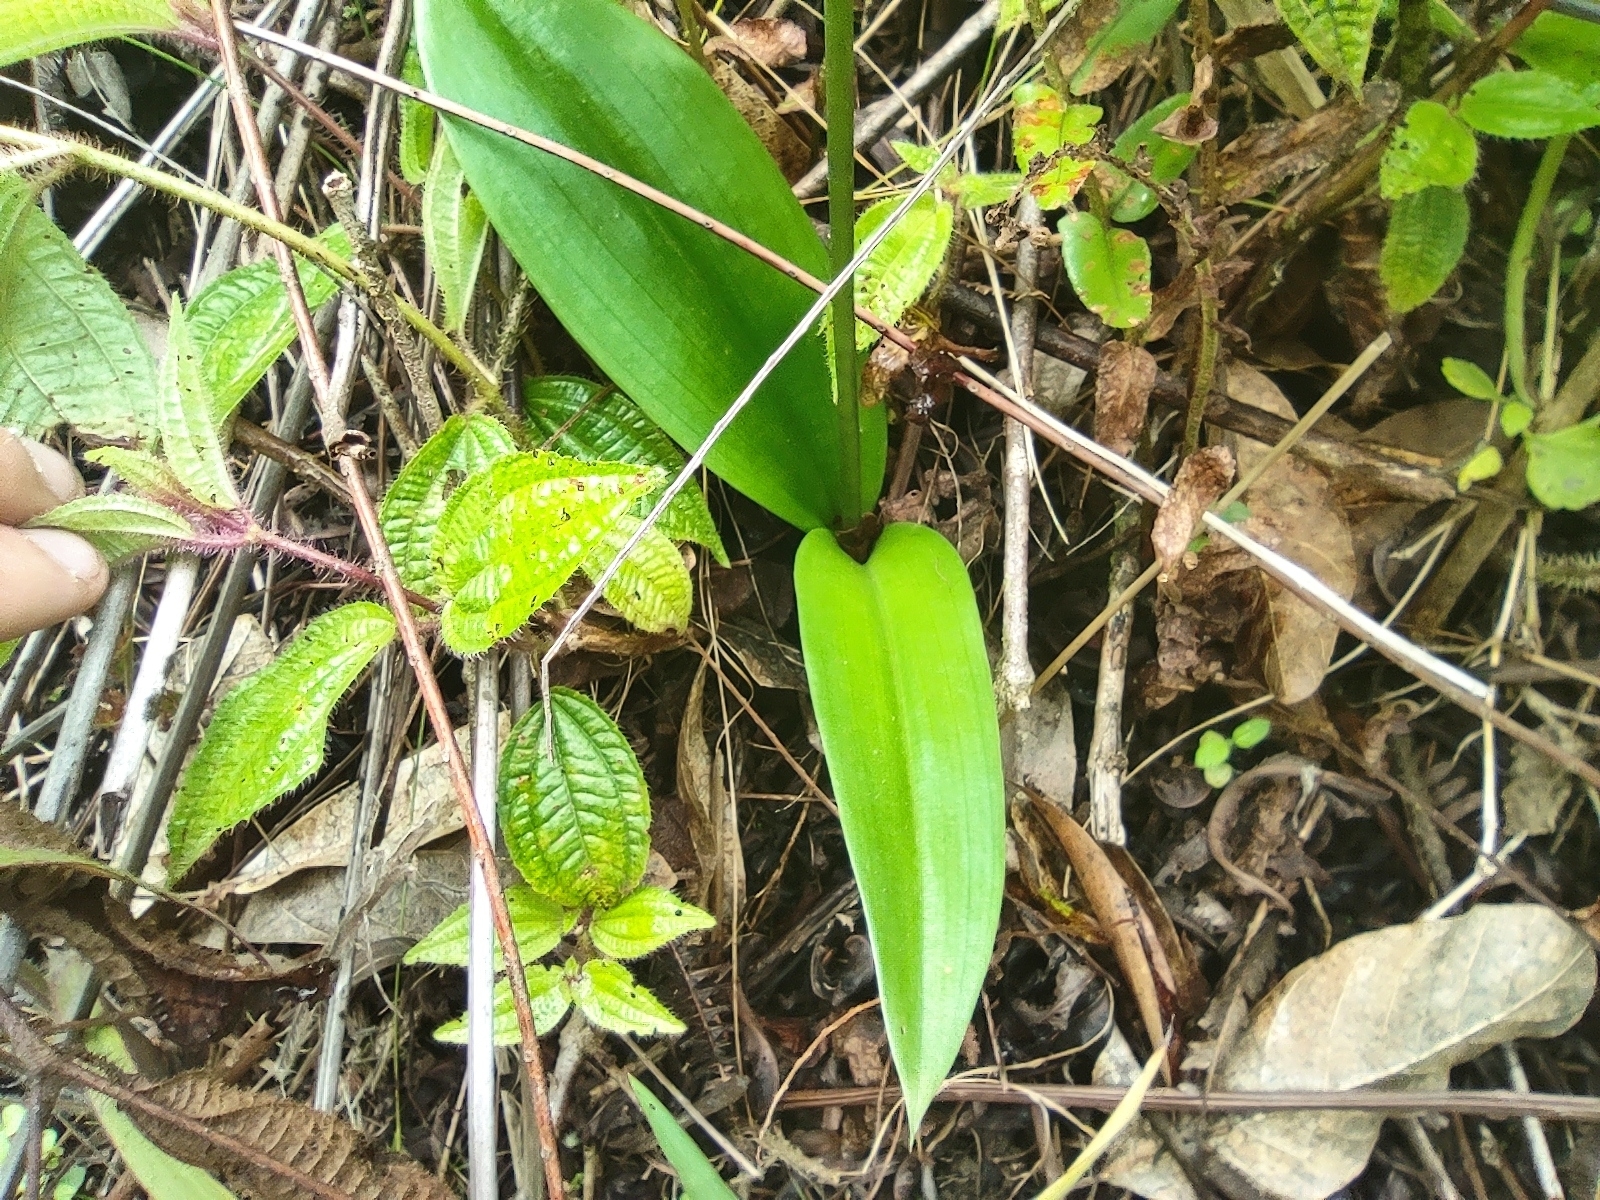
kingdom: Plantae
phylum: Tracheophyta
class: Liliopsida
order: Asparagales
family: Orchidaceae
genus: Cynorkis
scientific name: Cynorkis fastigiata
